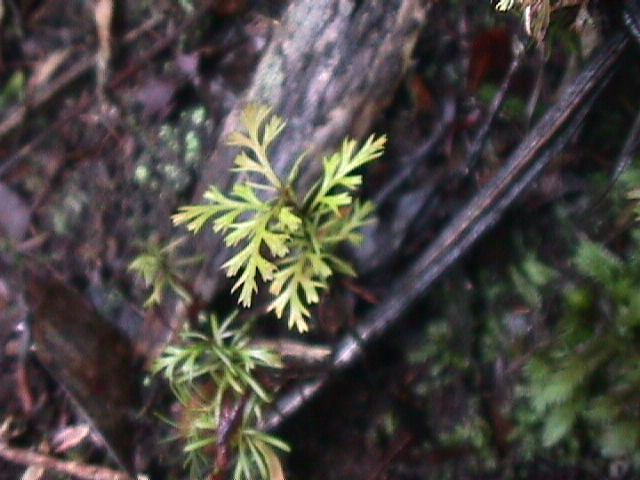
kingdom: Plantae
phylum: Tracheophyta
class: Pinopsida
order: Pinales
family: Phyllocladaceae
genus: Phyllocladus
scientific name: Phyllocladus trichomanoides
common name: Celery pine
